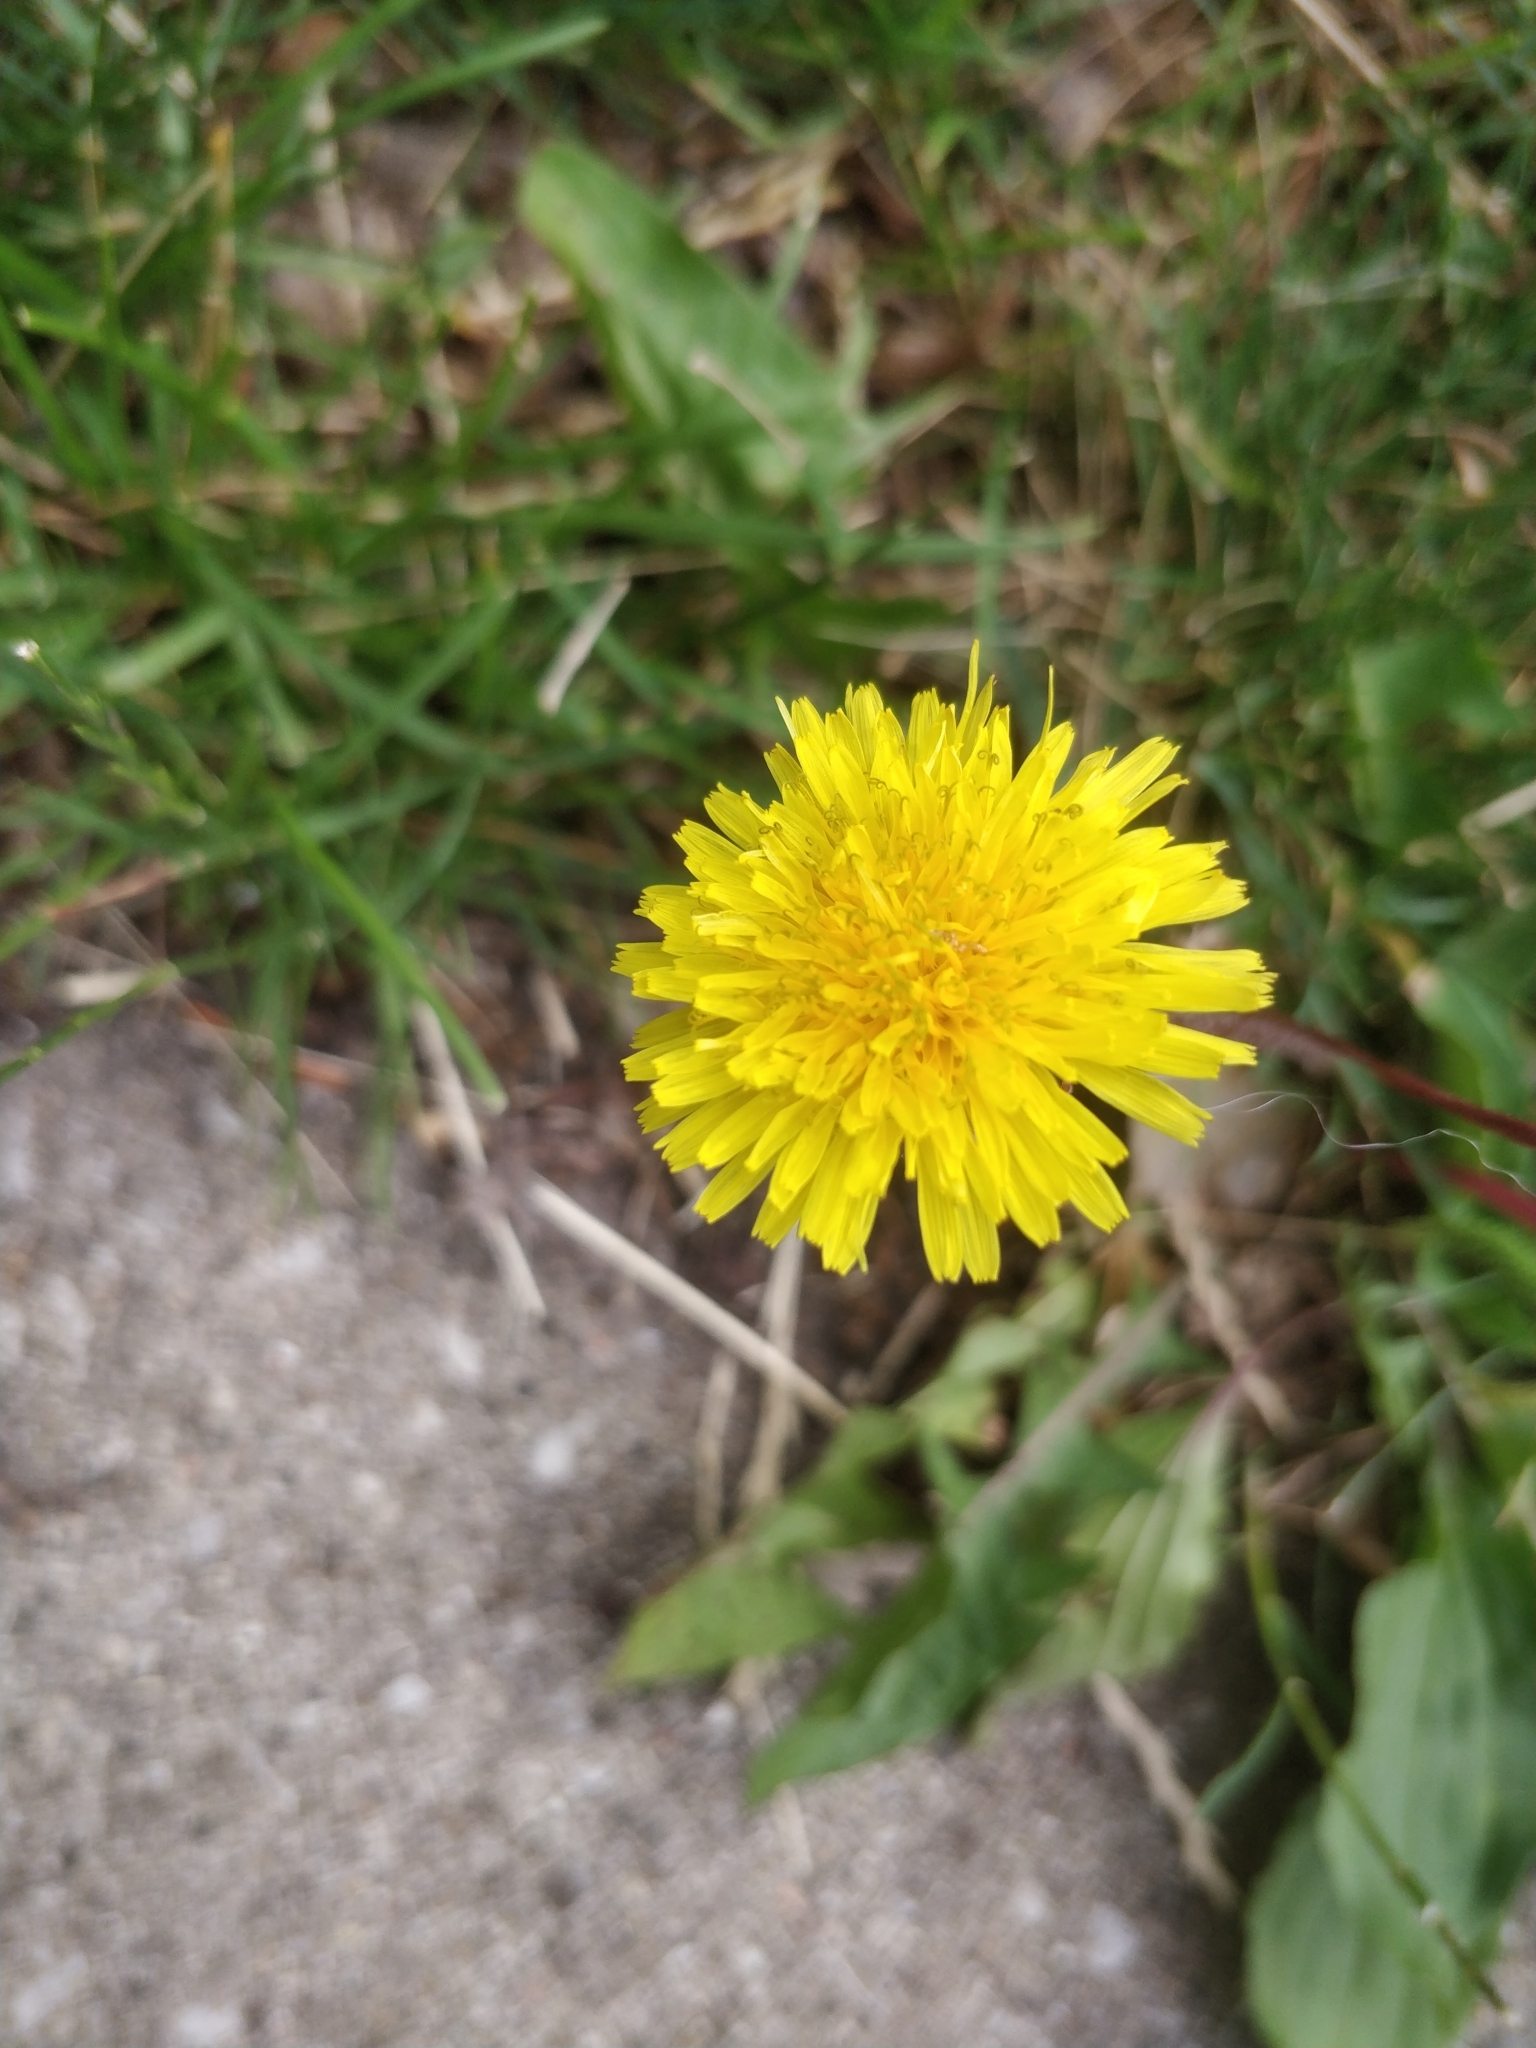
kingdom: Plantae
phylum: Tracheophyta
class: Magnoliopsida
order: Asterales
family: Asteraceae
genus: Taraxacum
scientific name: Taraxacum officinale
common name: Common dandelion
